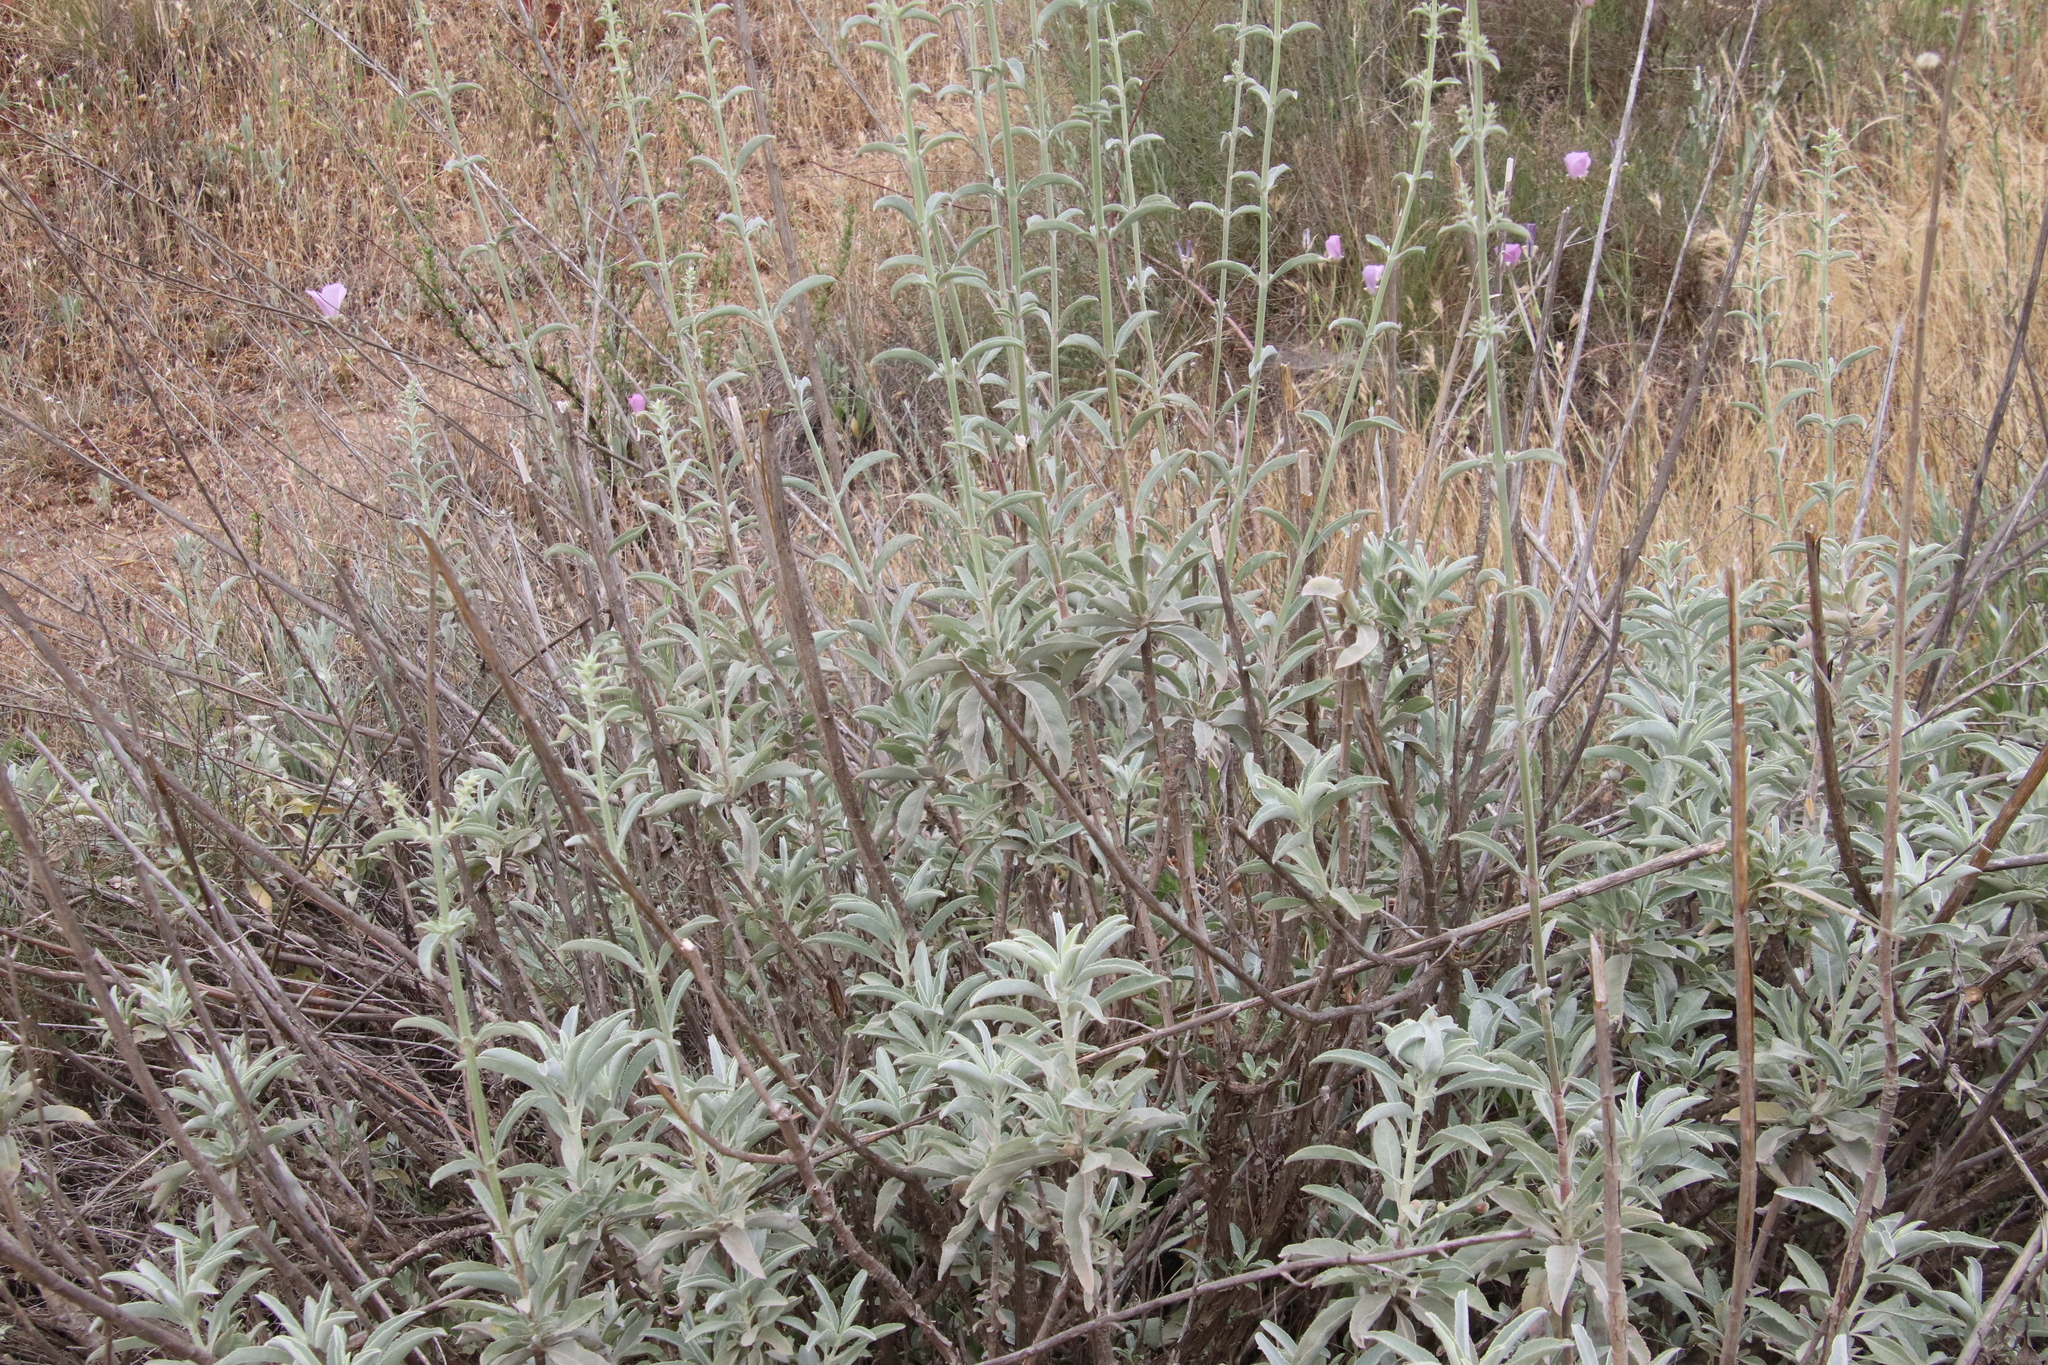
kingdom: Plantae
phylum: Tracheophyta
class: Magnoliopsida
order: Lamiales
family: Lamiaceae
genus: Salvia
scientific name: Salvia apiana
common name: White sage
